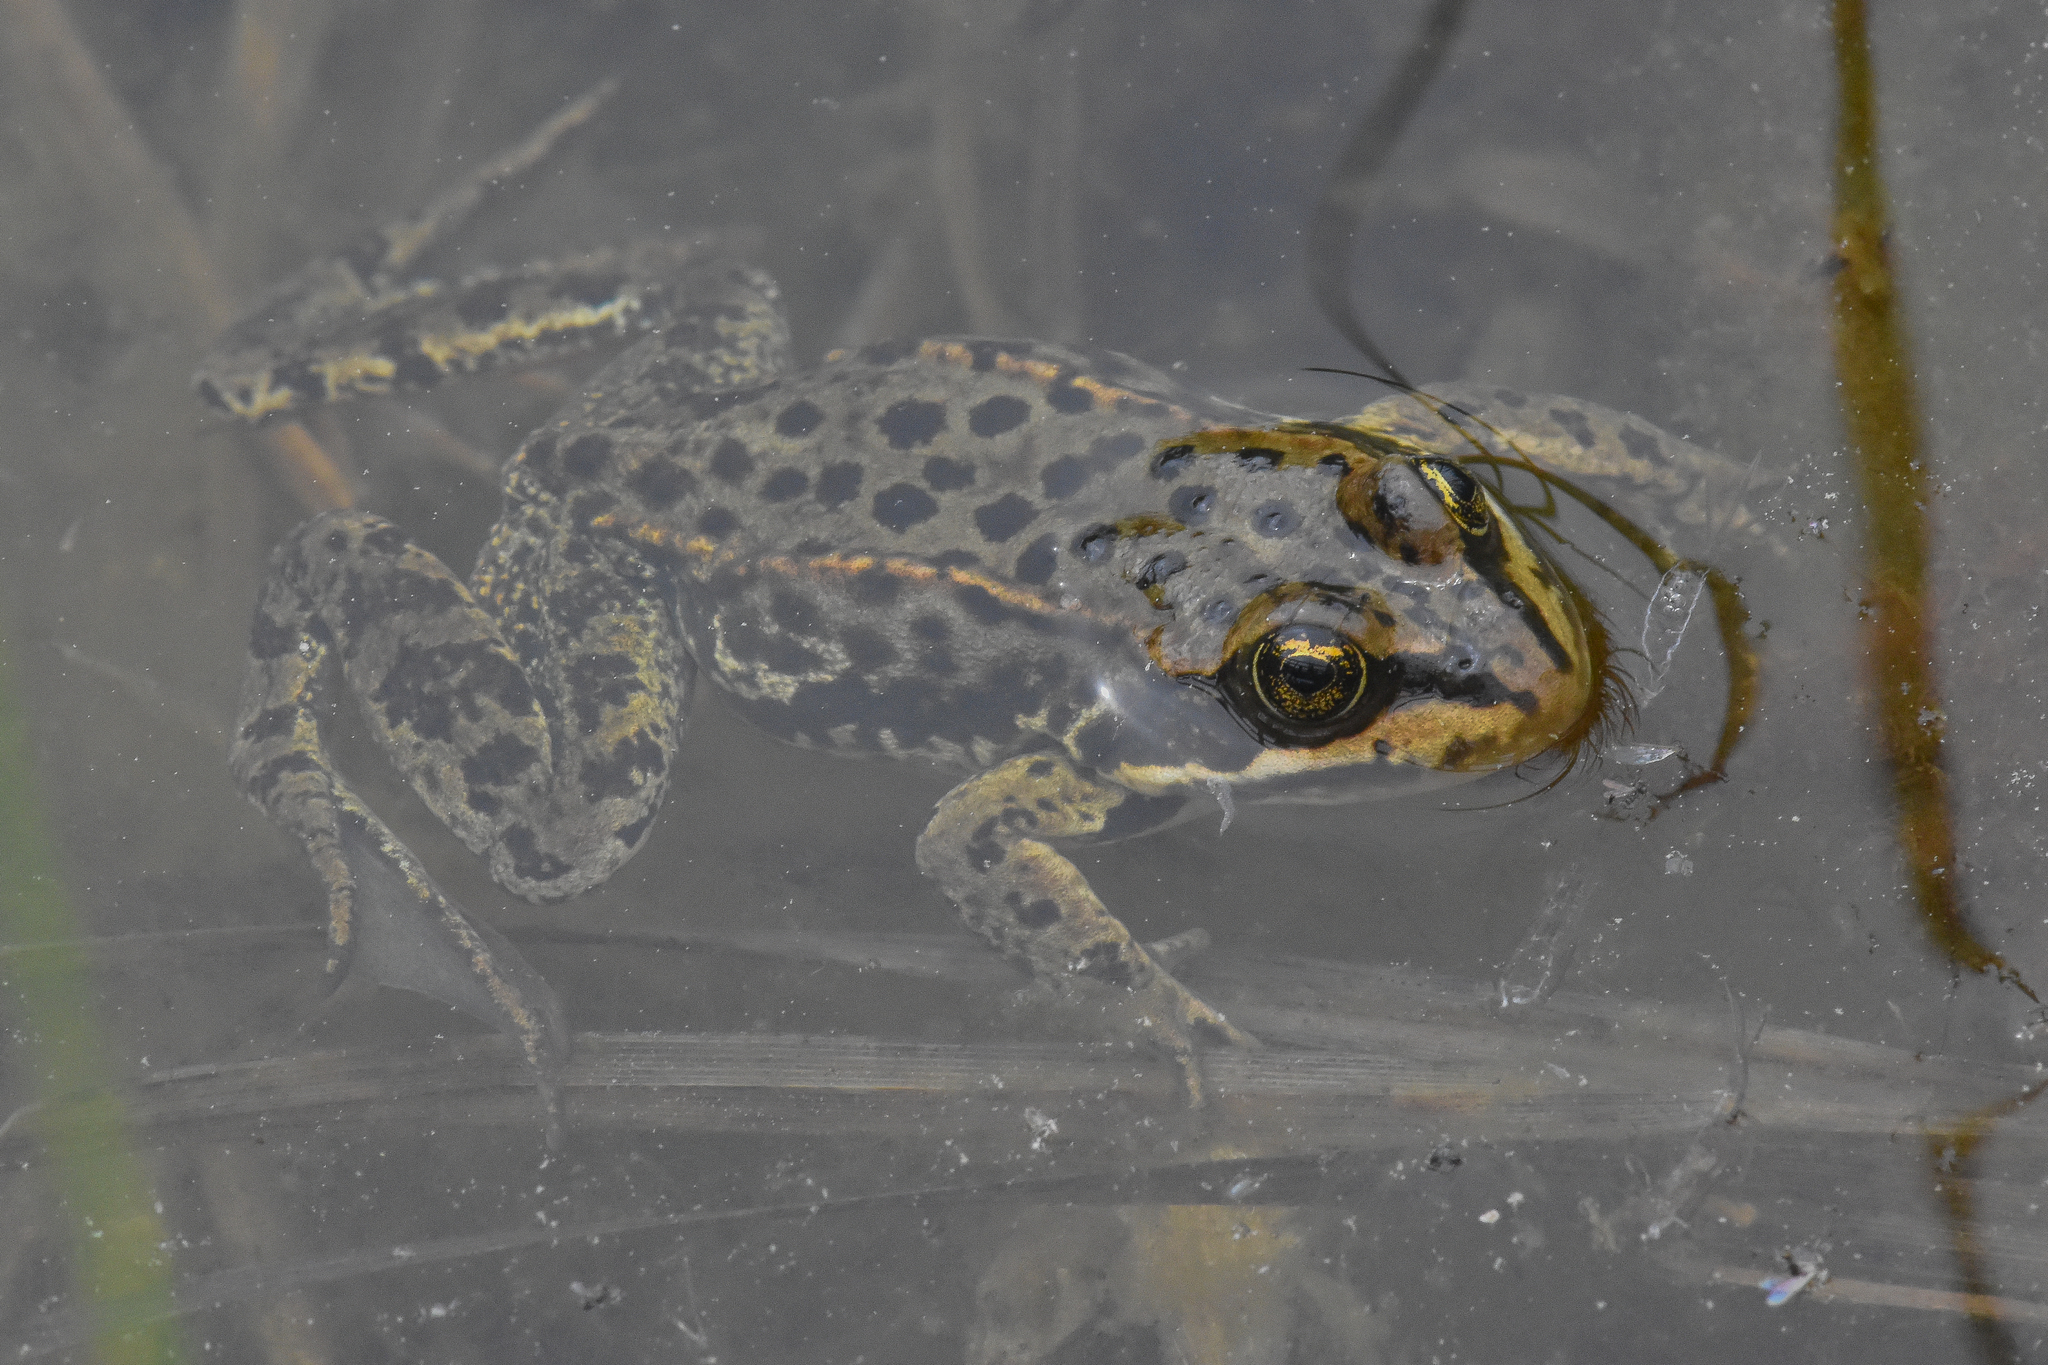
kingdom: Animalia
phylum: Chordata
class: Amphibia
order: Anura
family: Ranidae
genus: Rana
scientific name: Rana luteiventris
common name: Columbia spotted frog
